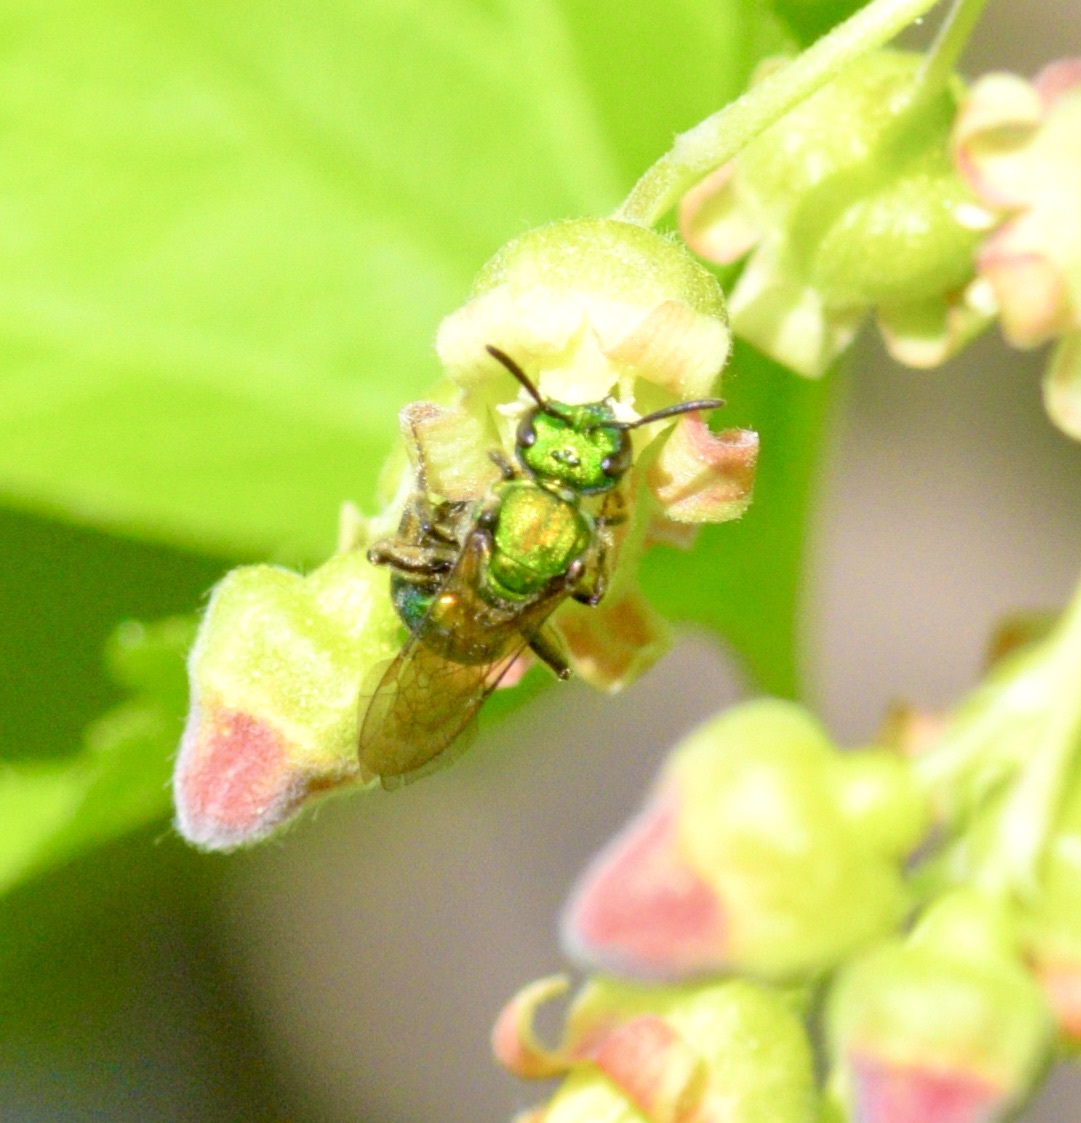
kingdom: Animalia
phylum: Arthropoda
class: Insecta
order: Hymenoptera
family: Halictidae
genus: Augochlora
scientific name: Augochlora pura
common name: Pure green sweat bee
